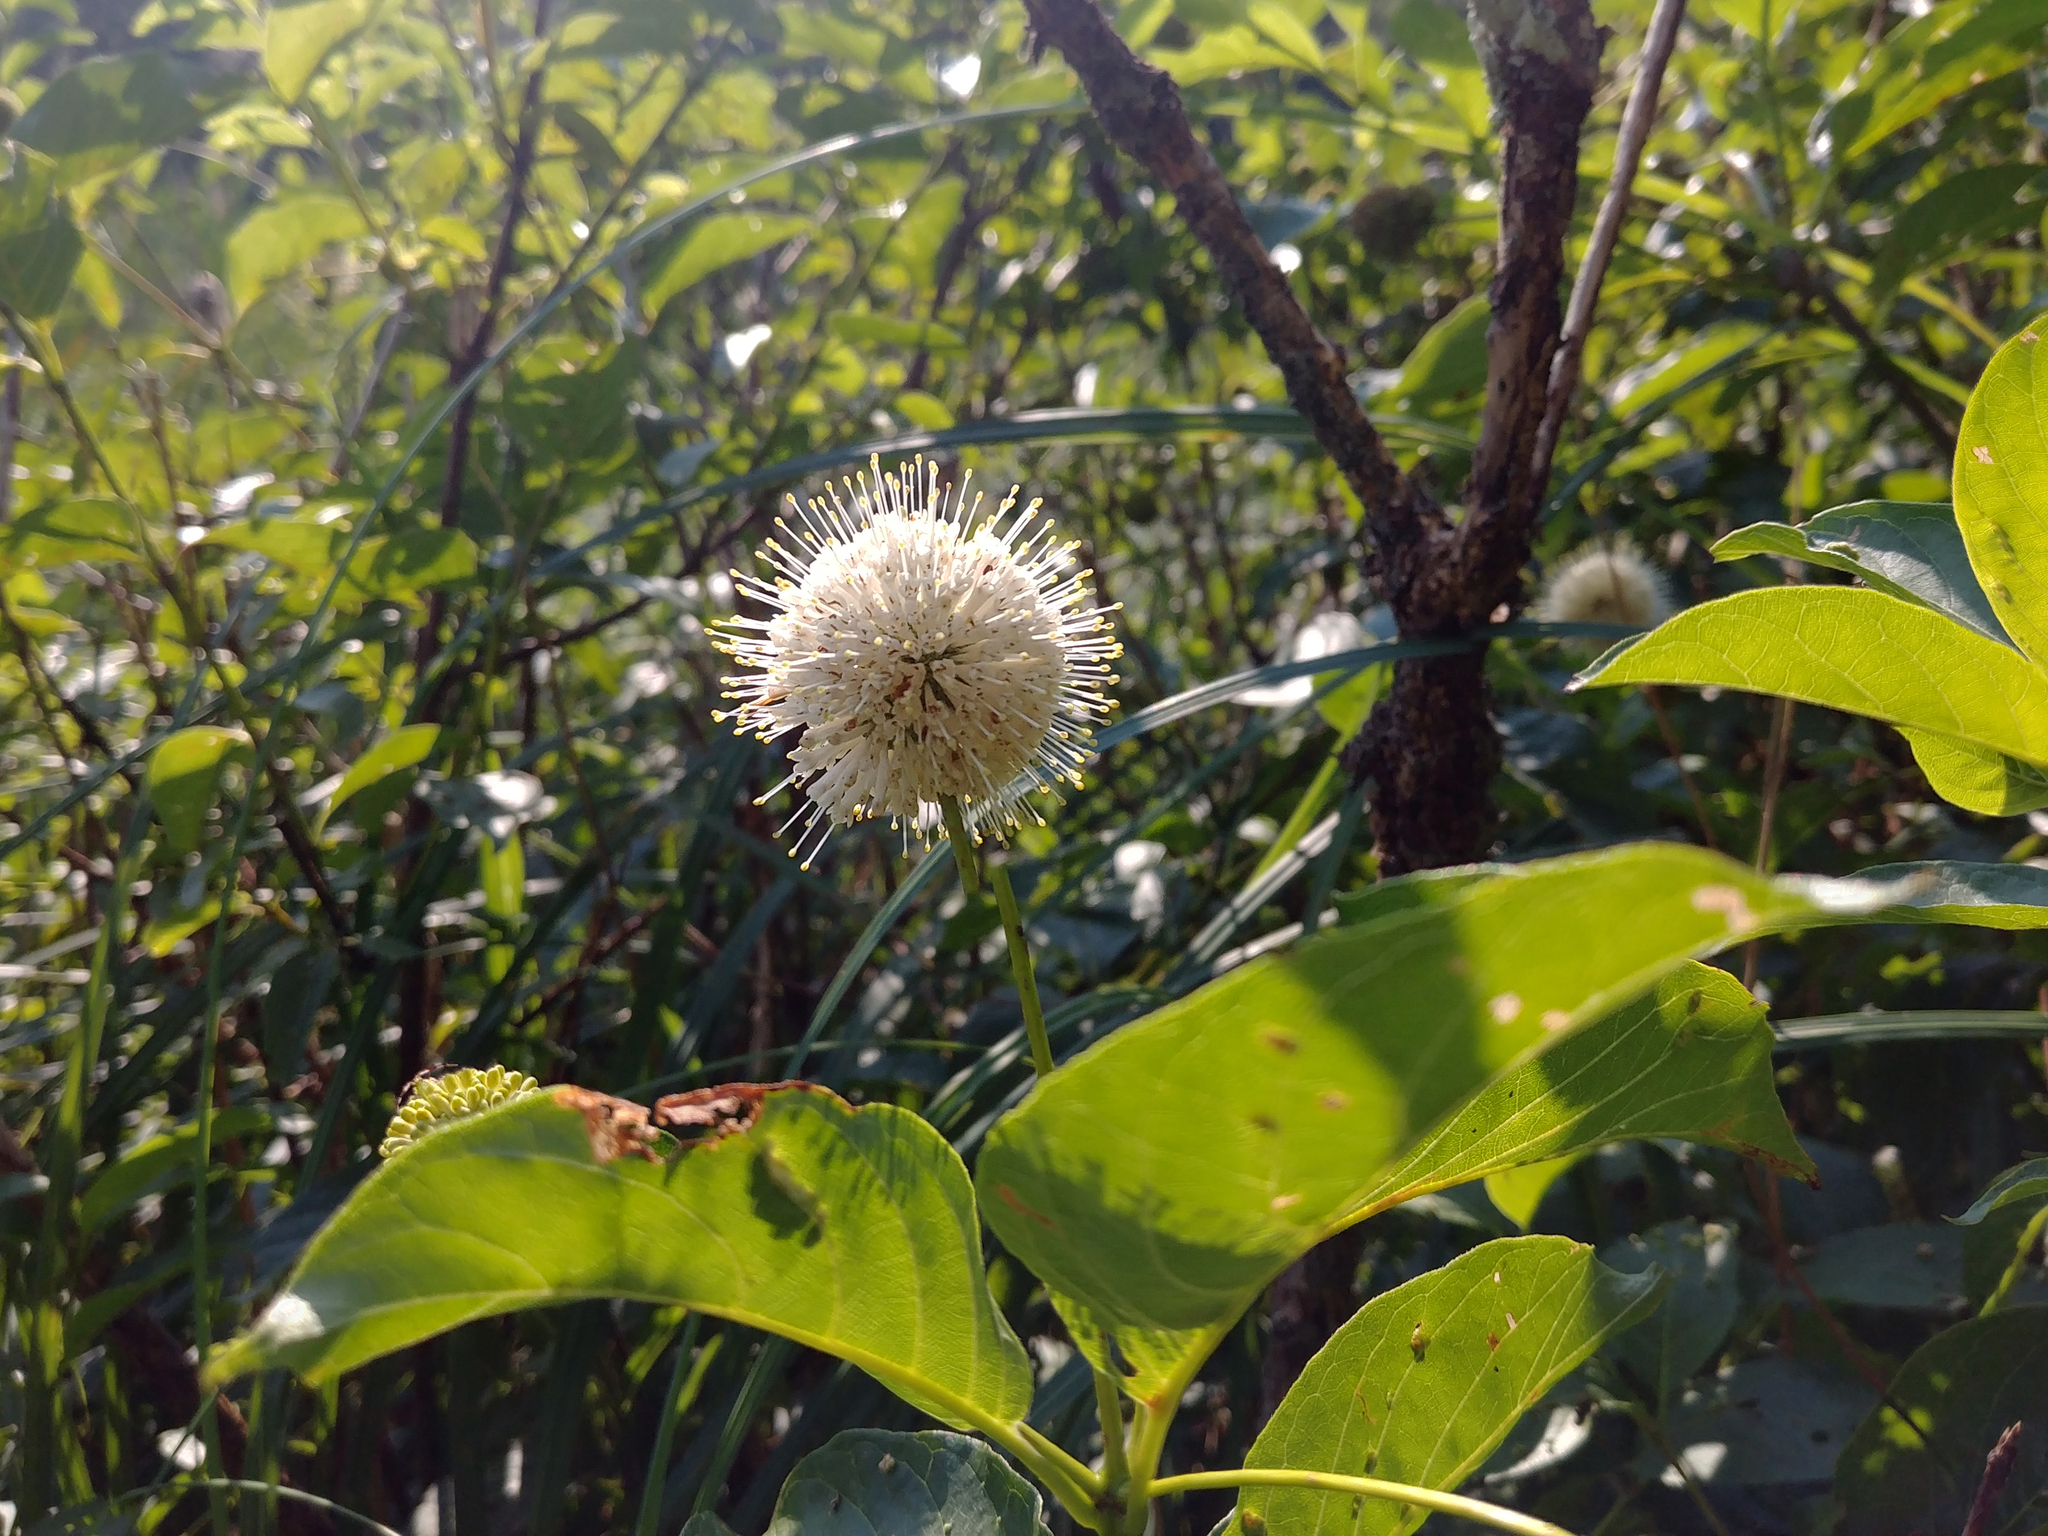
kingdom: Plantae
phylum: Tracheophyta
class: Magnoliopsida
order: Gentianales
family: Rubiaceae
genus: Cephalanthus
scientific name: Cephalanthus occidentalis
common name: Button-willow
